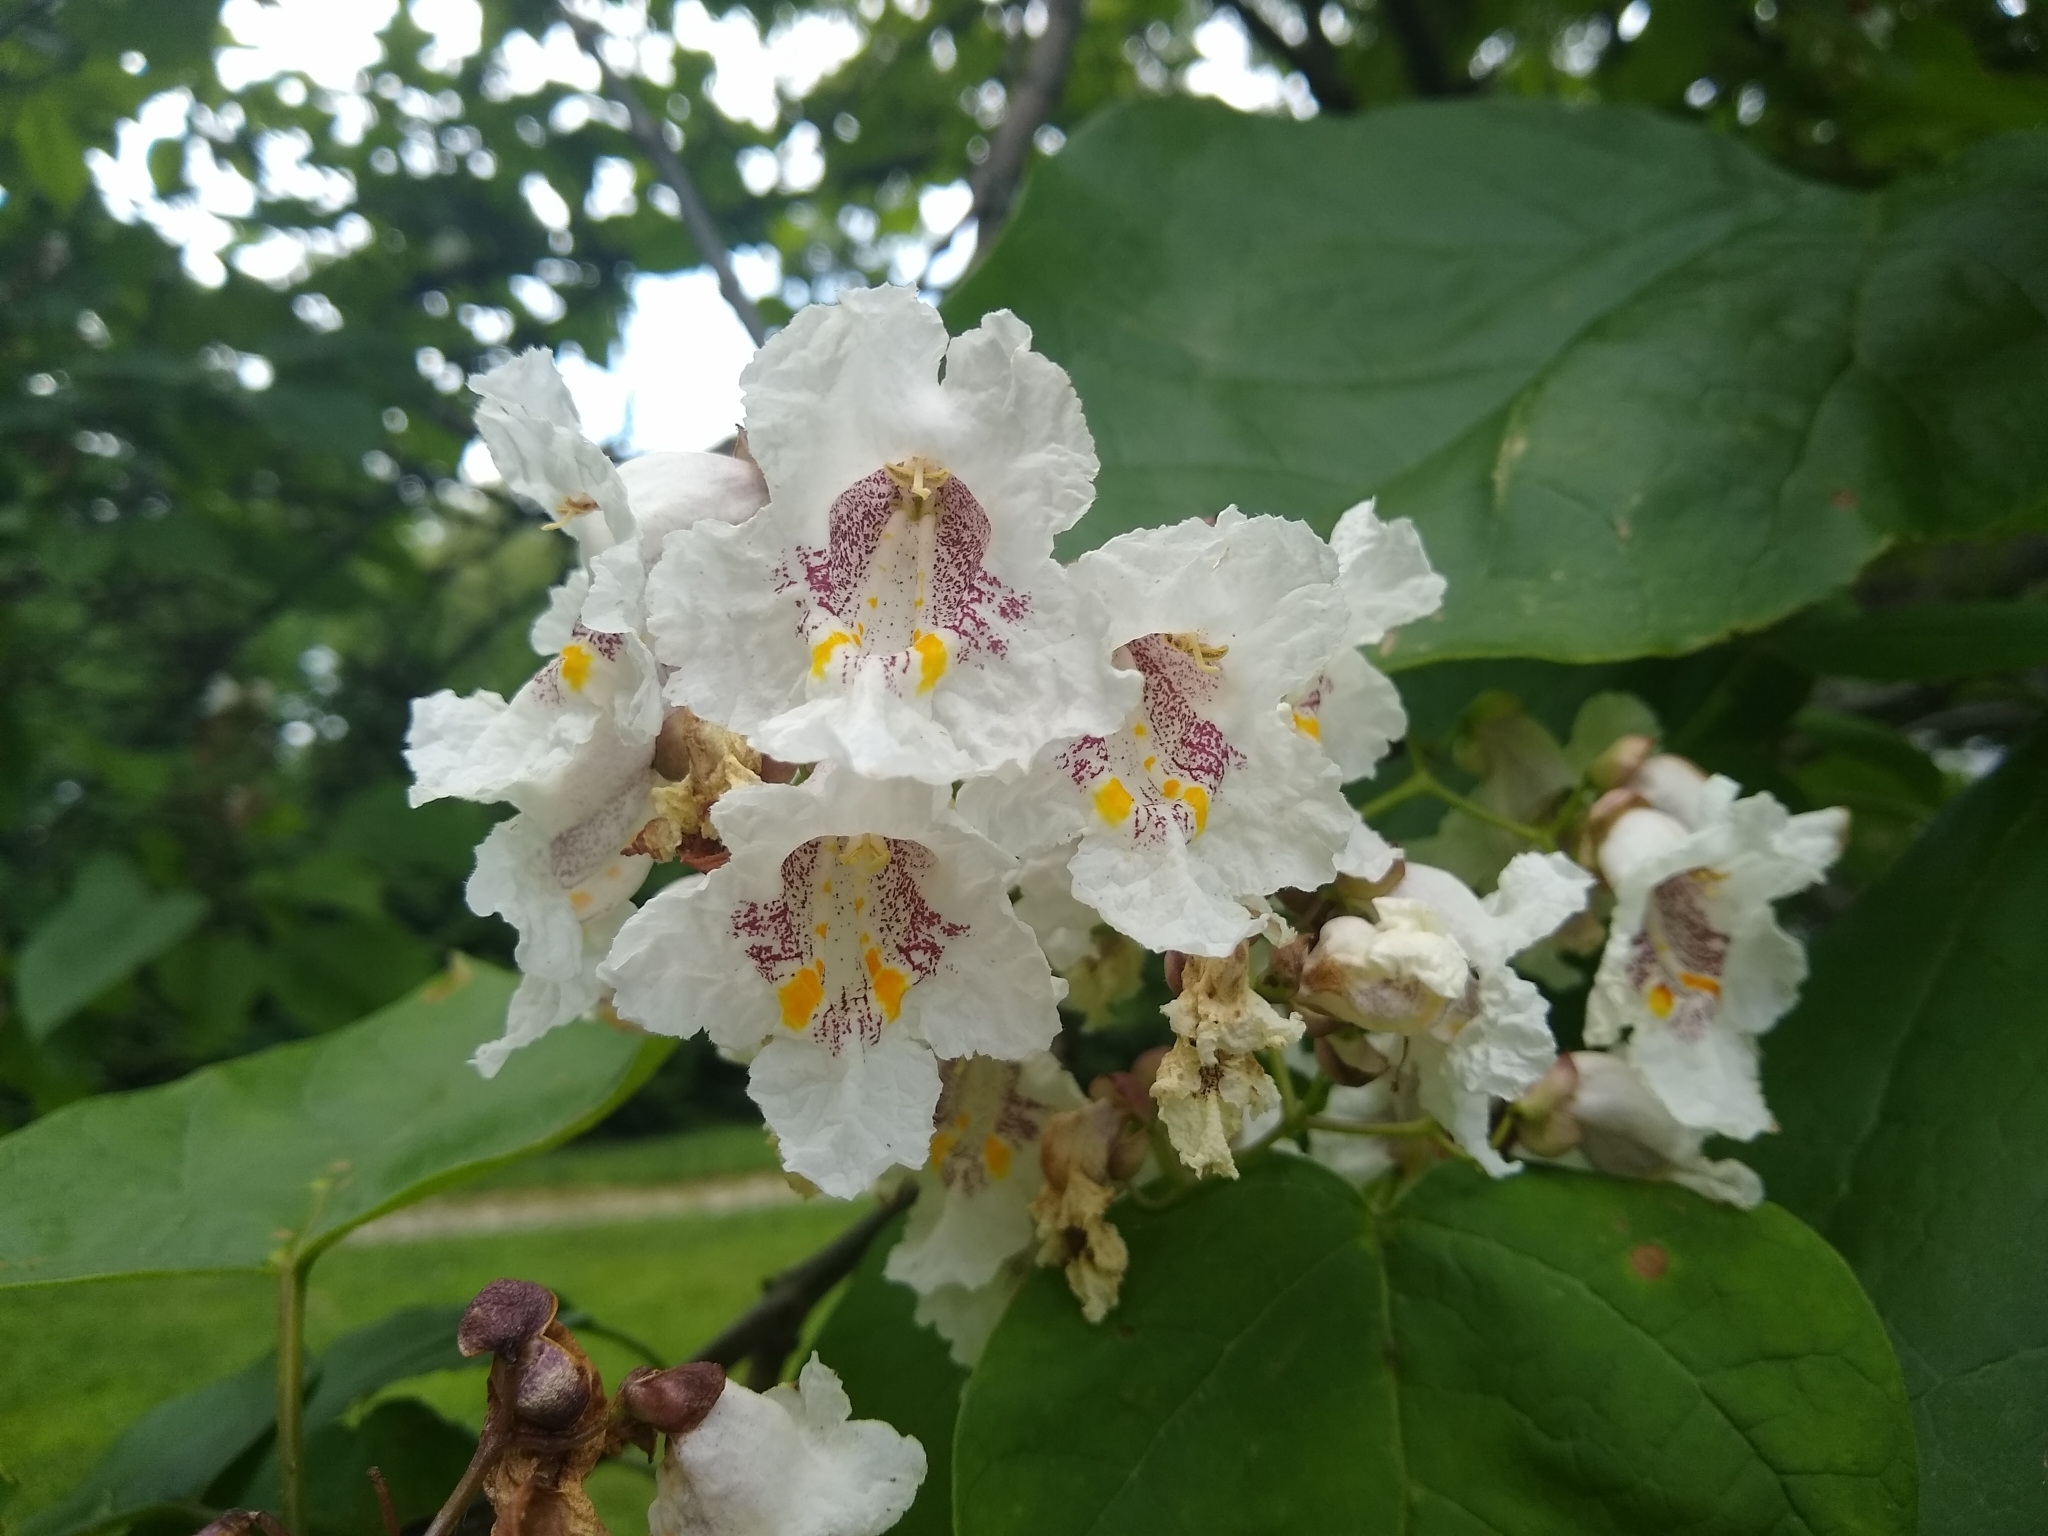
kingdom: Plantae
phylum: Tracheophyta
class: Magnoliopsida
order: Lamiales
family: Bignoniaceae
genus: Catalpa
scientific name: Catalpa speciosa
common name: Northern catalpa
